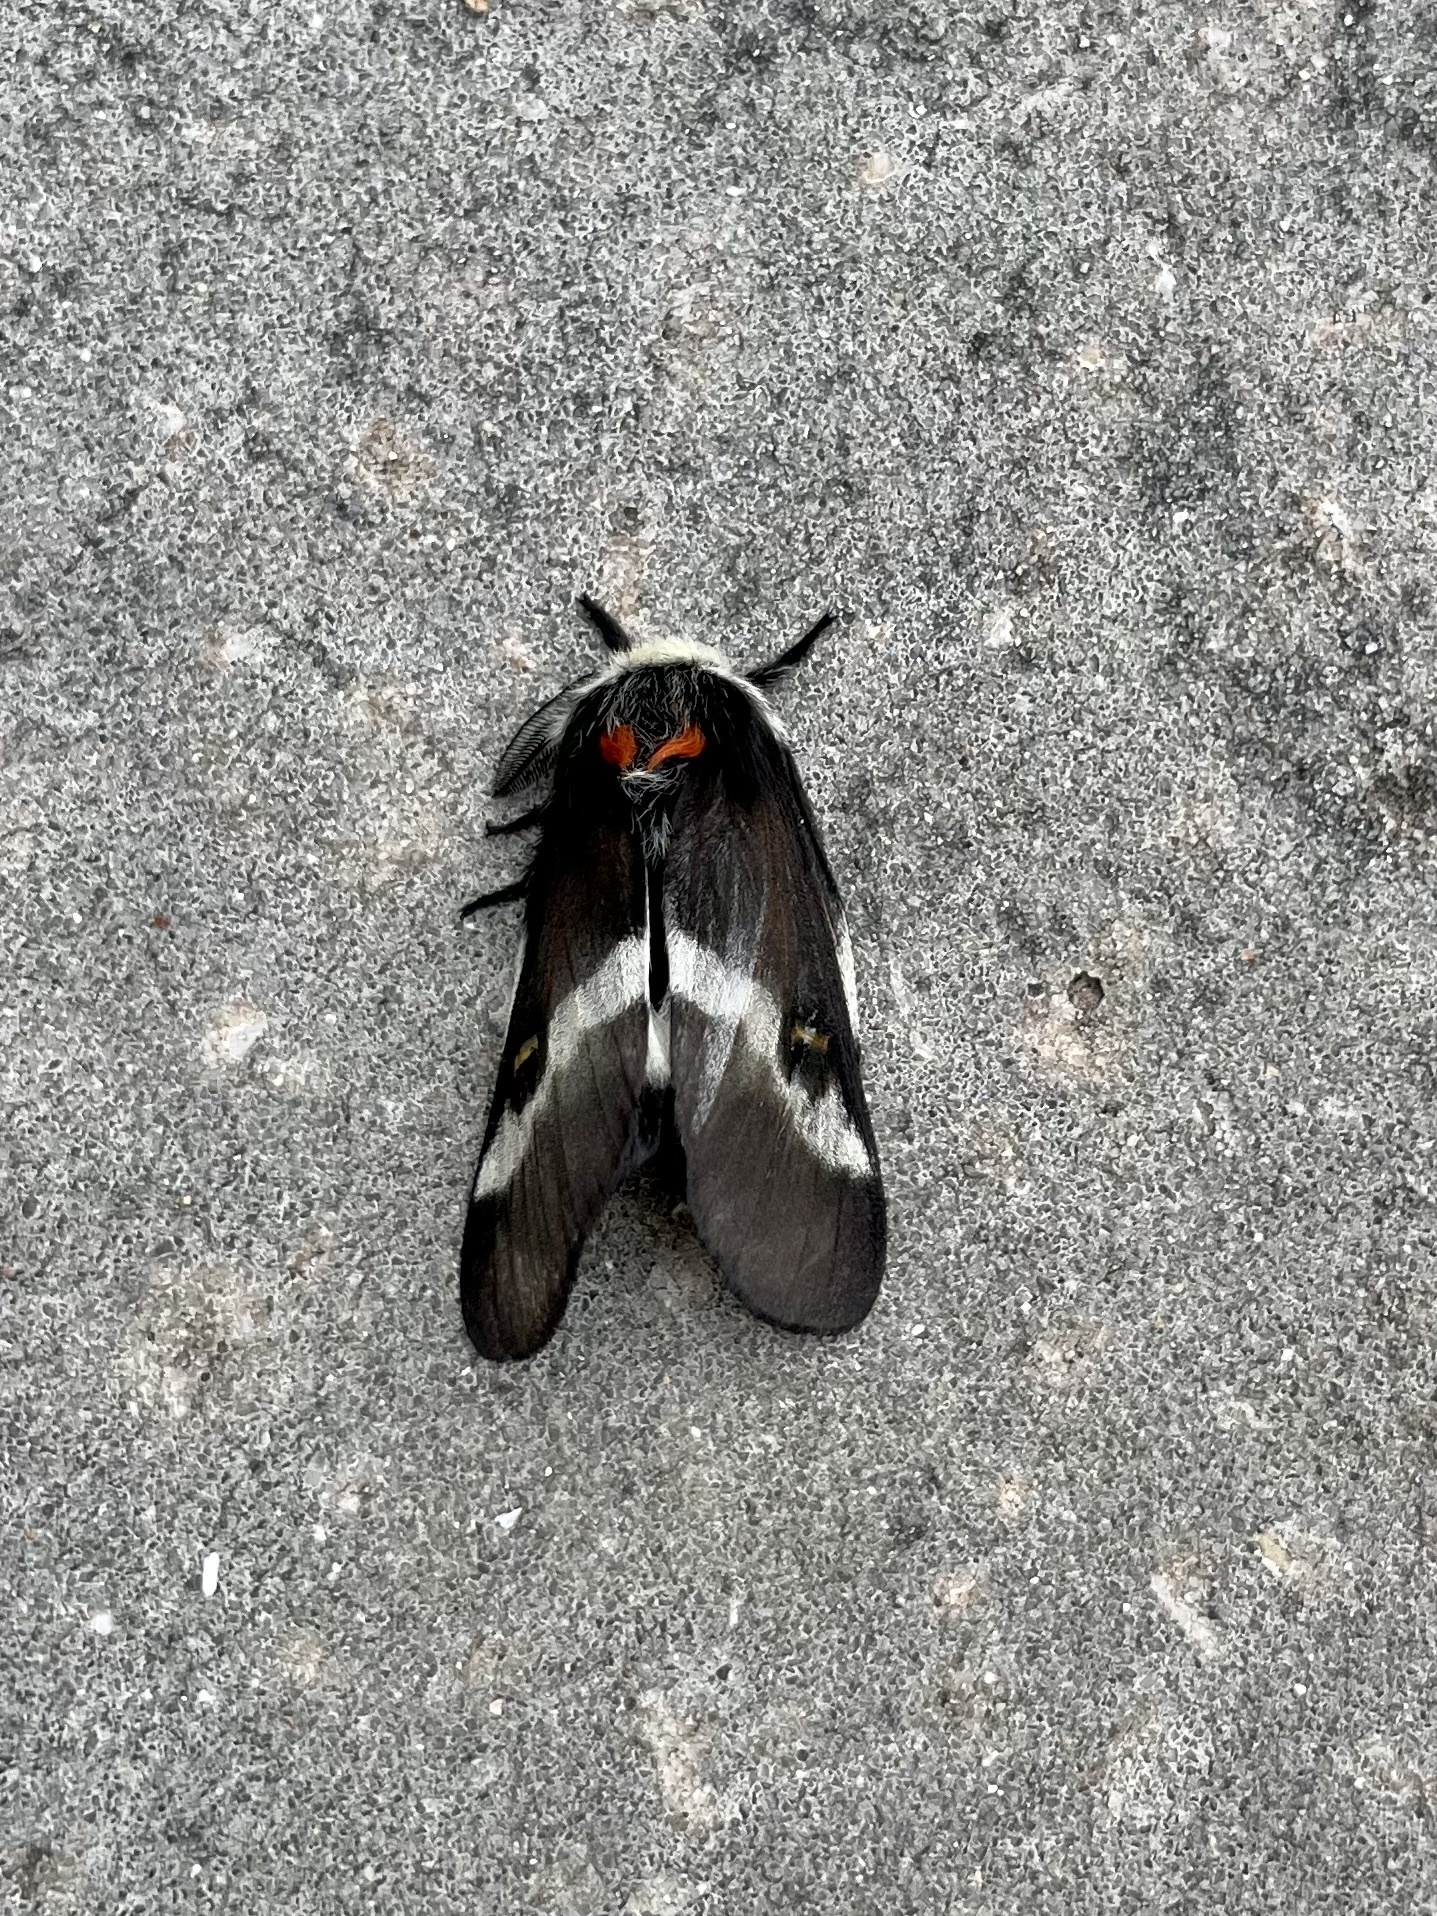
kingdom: Animalia
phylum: Arthropoda
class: Insecta
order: Lepidoptera
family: Saturniidae
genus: Hemileuca
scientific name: Hemileuca peigleri
